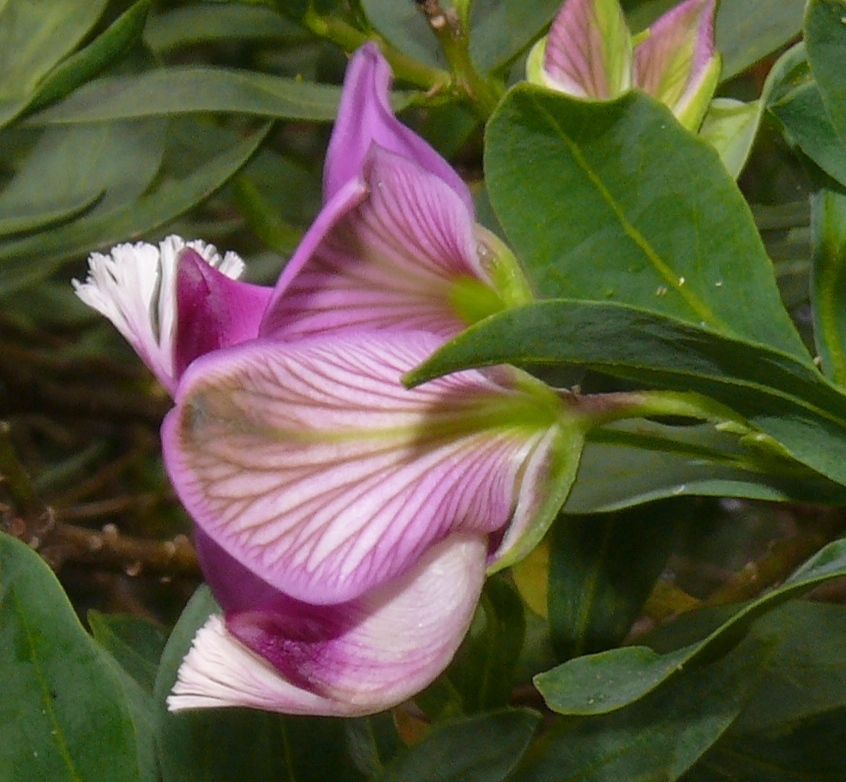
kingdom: Plantae
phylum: Tracheophyta
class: Magnoliopsida
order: Fabales
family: Polygalaceae
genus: Polygala
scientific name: Polygala myrtifolia
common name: Myrtle-leaf milkwort
